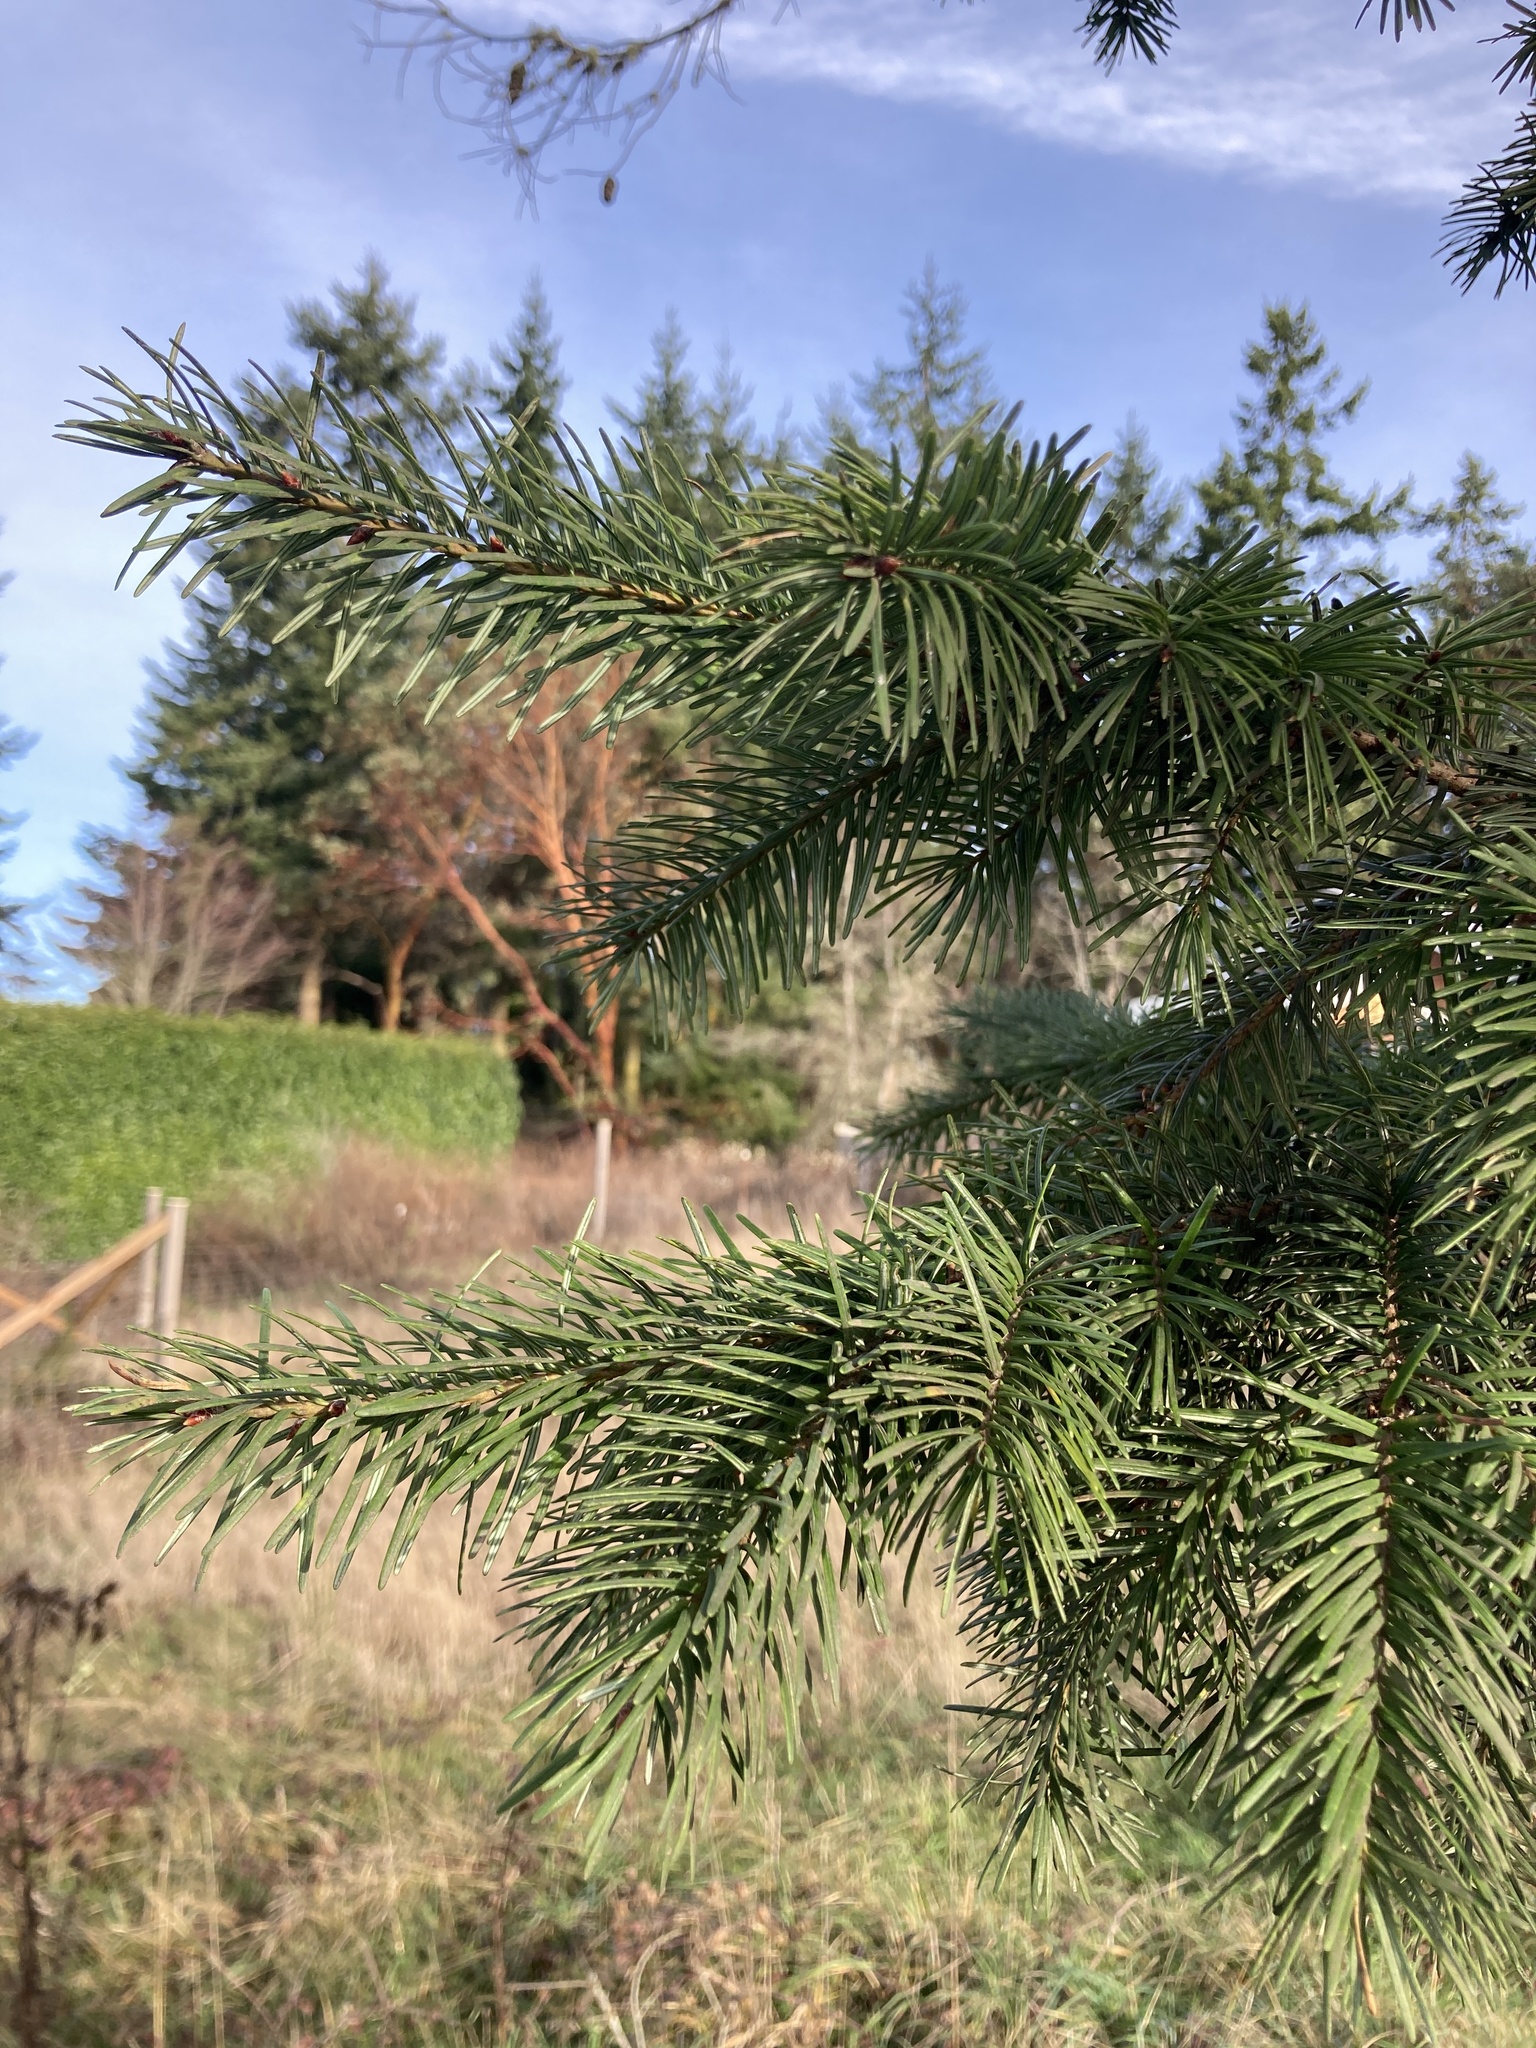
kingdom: Plantae
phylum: Tracheophyta
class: Pinopsida
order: Pinales
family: Pinaceae
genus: Pseudotsuga
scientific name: Pseudotsuga menziesii
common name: Douglas fir
